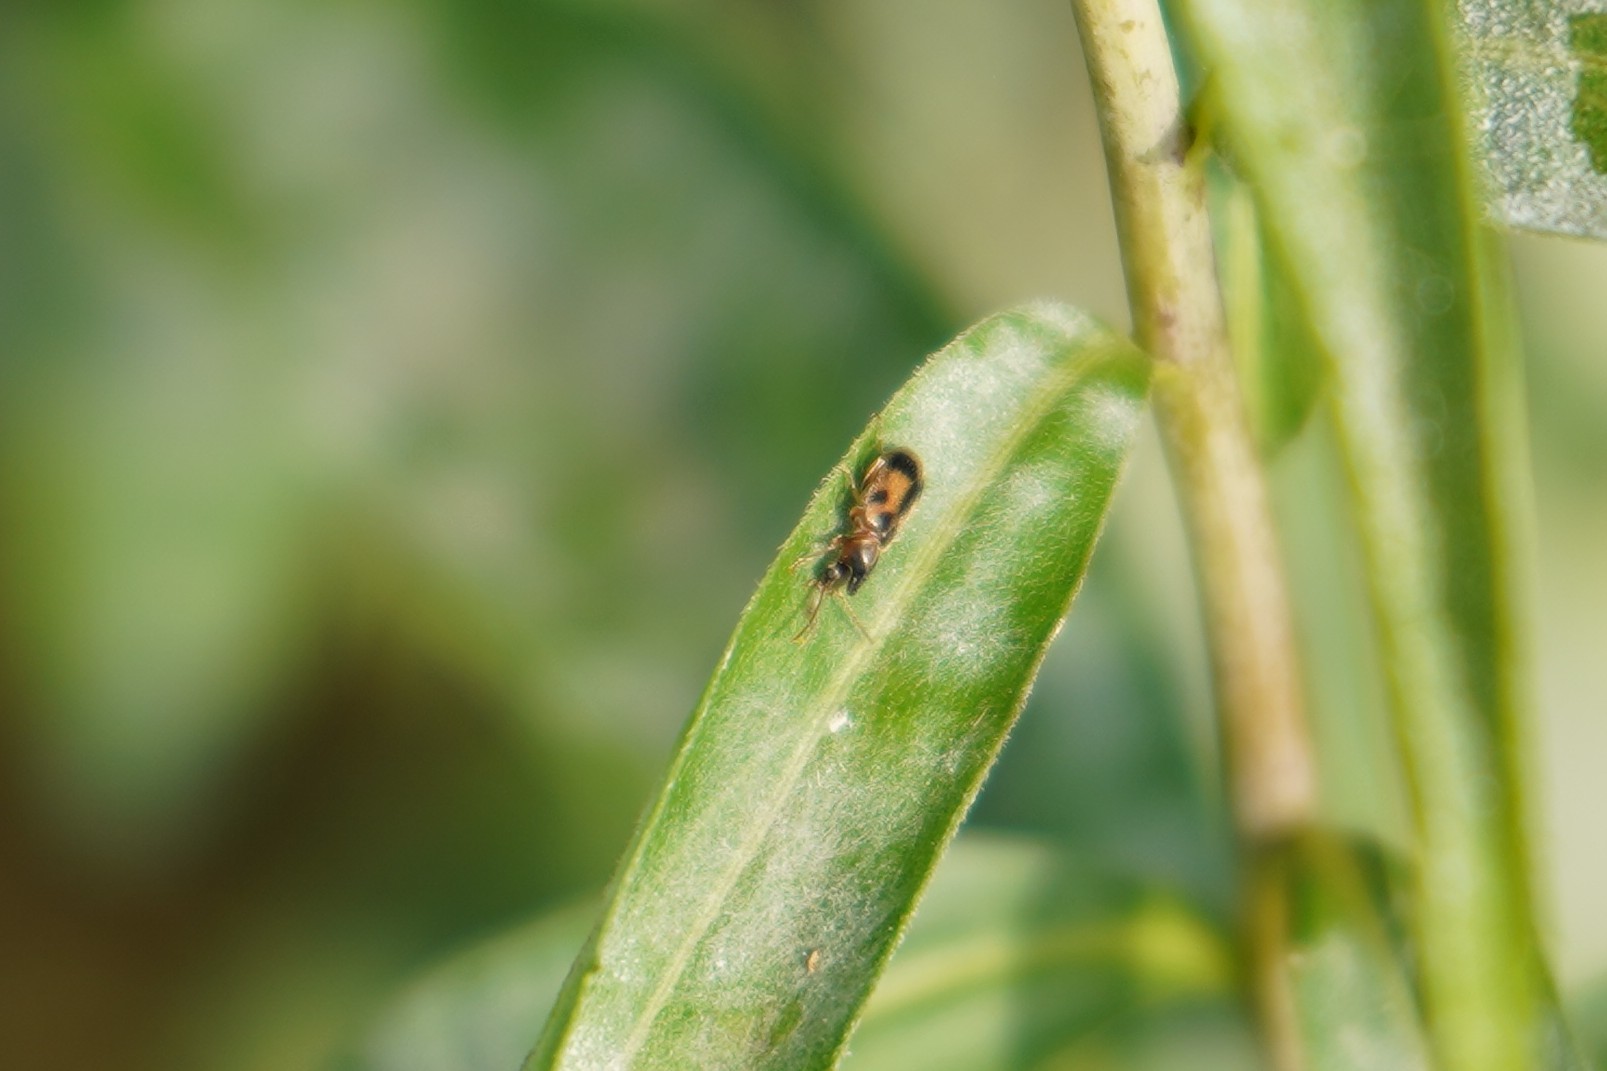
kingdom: Animalia
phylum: Arthropoda
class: Insecta
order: Coleoptera
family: Anthicidae
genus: Notoxus
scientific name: Notoxus monoceros
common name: Monoceros beetle
